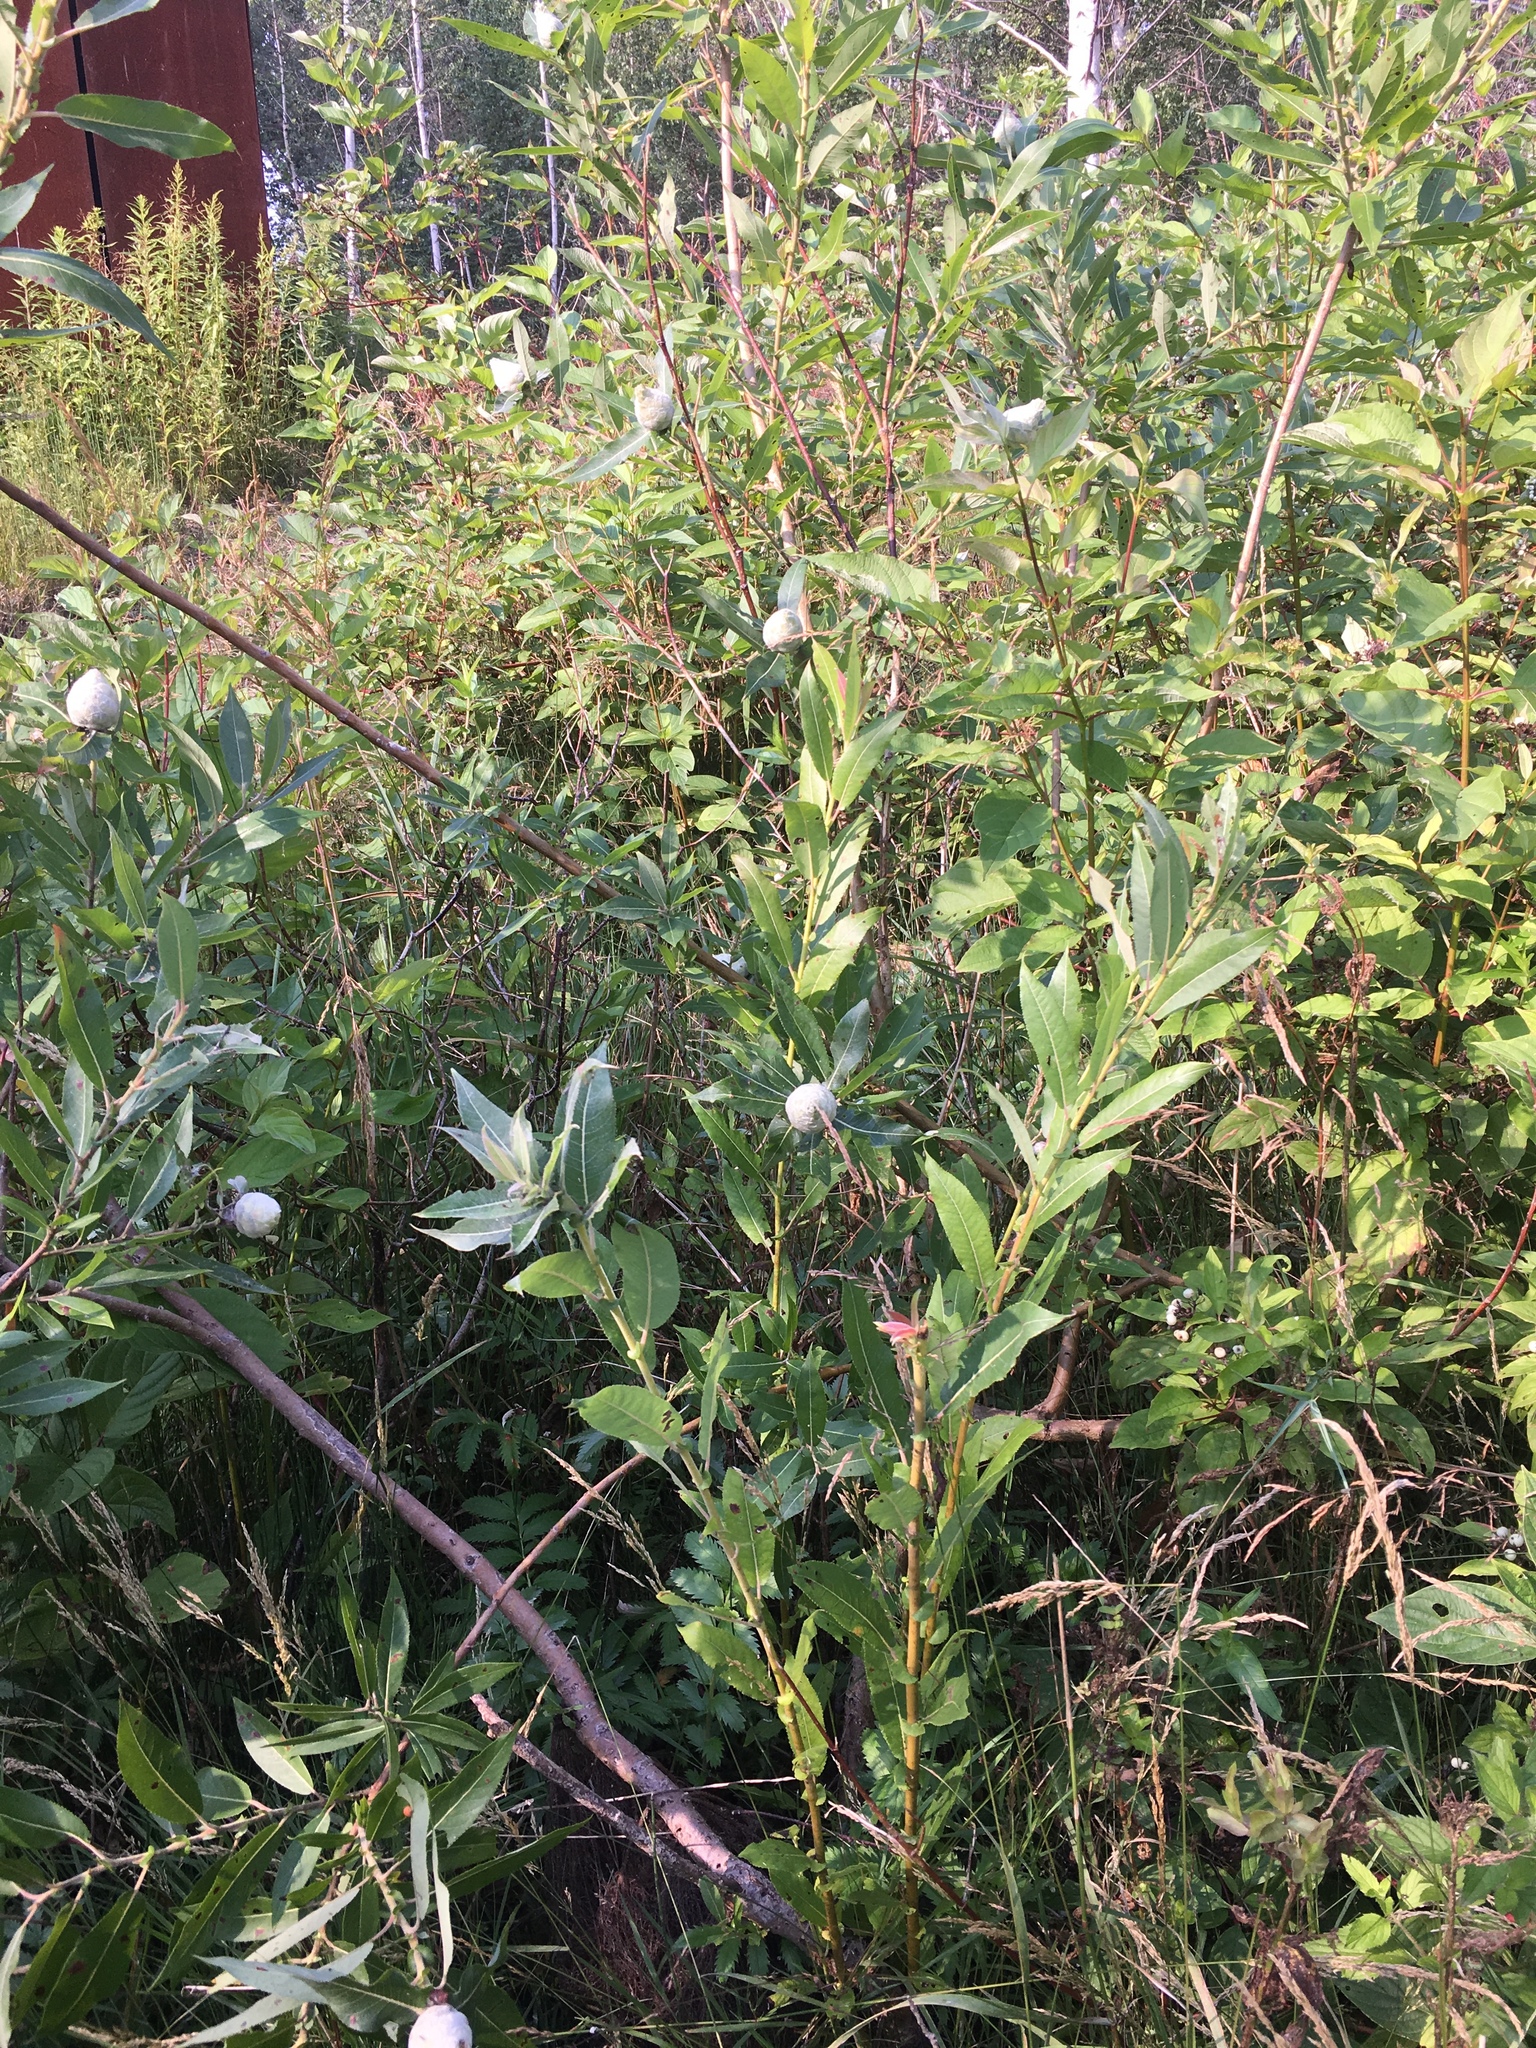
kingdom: Plantae
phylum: Tracheophyta
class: Magnoliopsida
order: Malpighiales
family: Salicaceae
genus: Salix
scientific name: Salix eriocephala
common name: Heart-leaved willow
